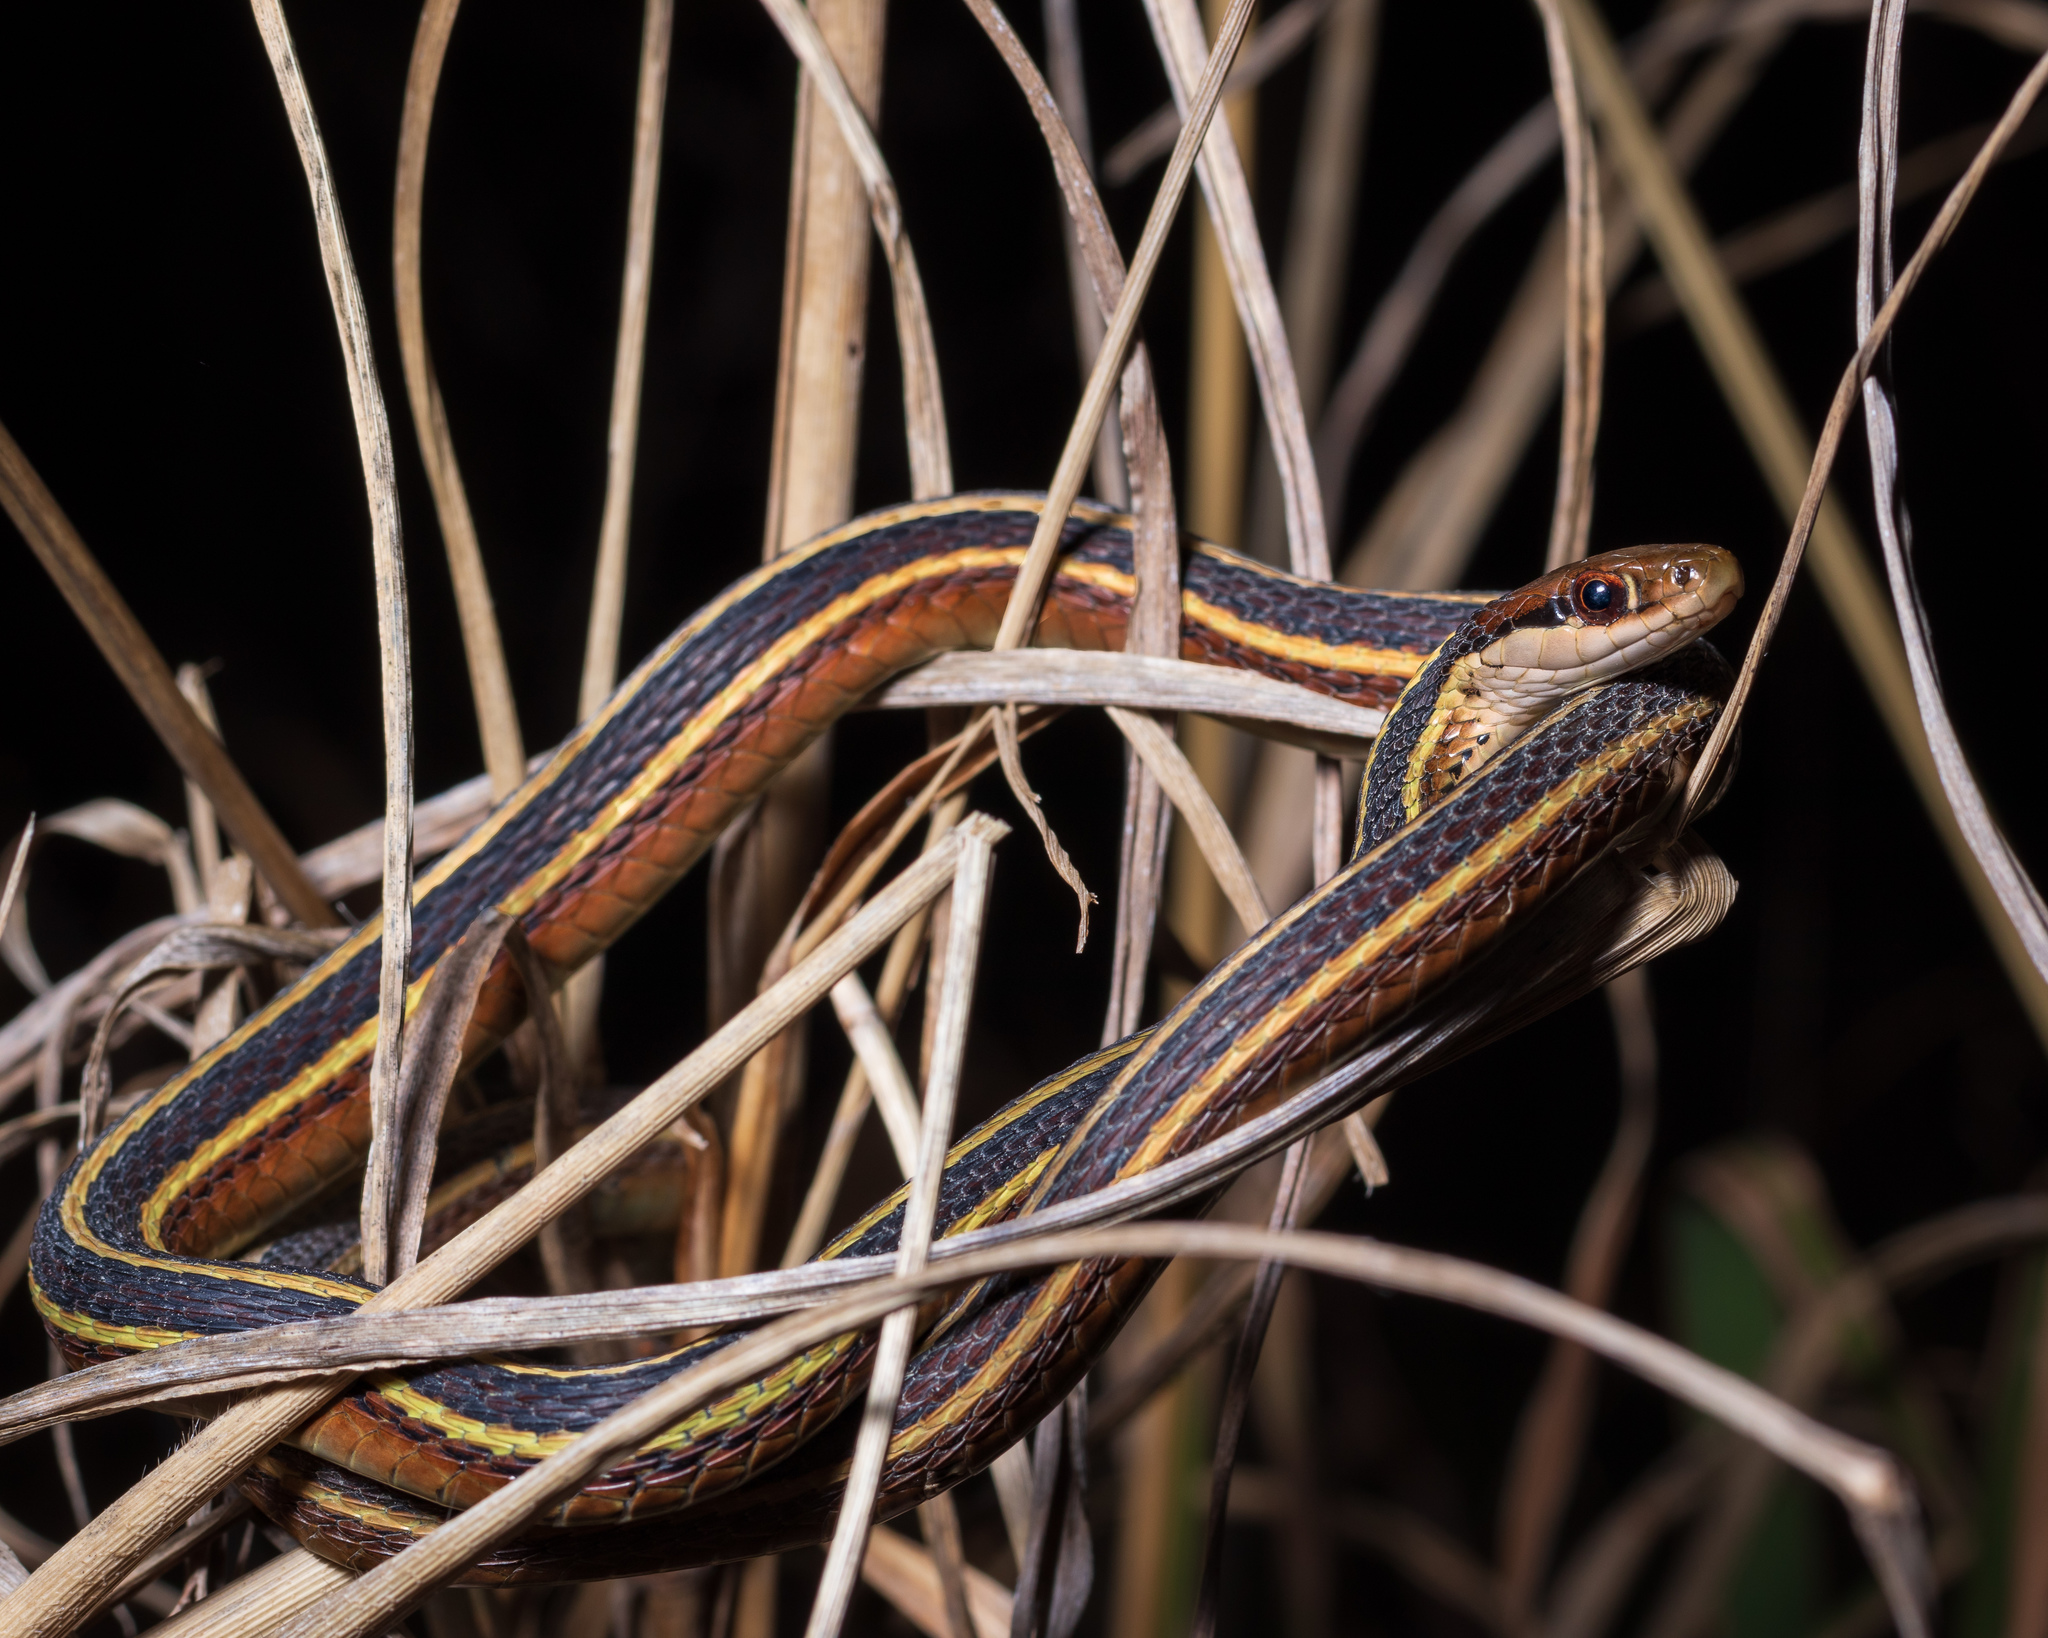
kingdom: Animalia
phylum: Chordata
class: Squamata
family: Colubridae
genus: Thamnophis
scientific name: Thamnophis saurita
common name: Eastern ribbonsnake
